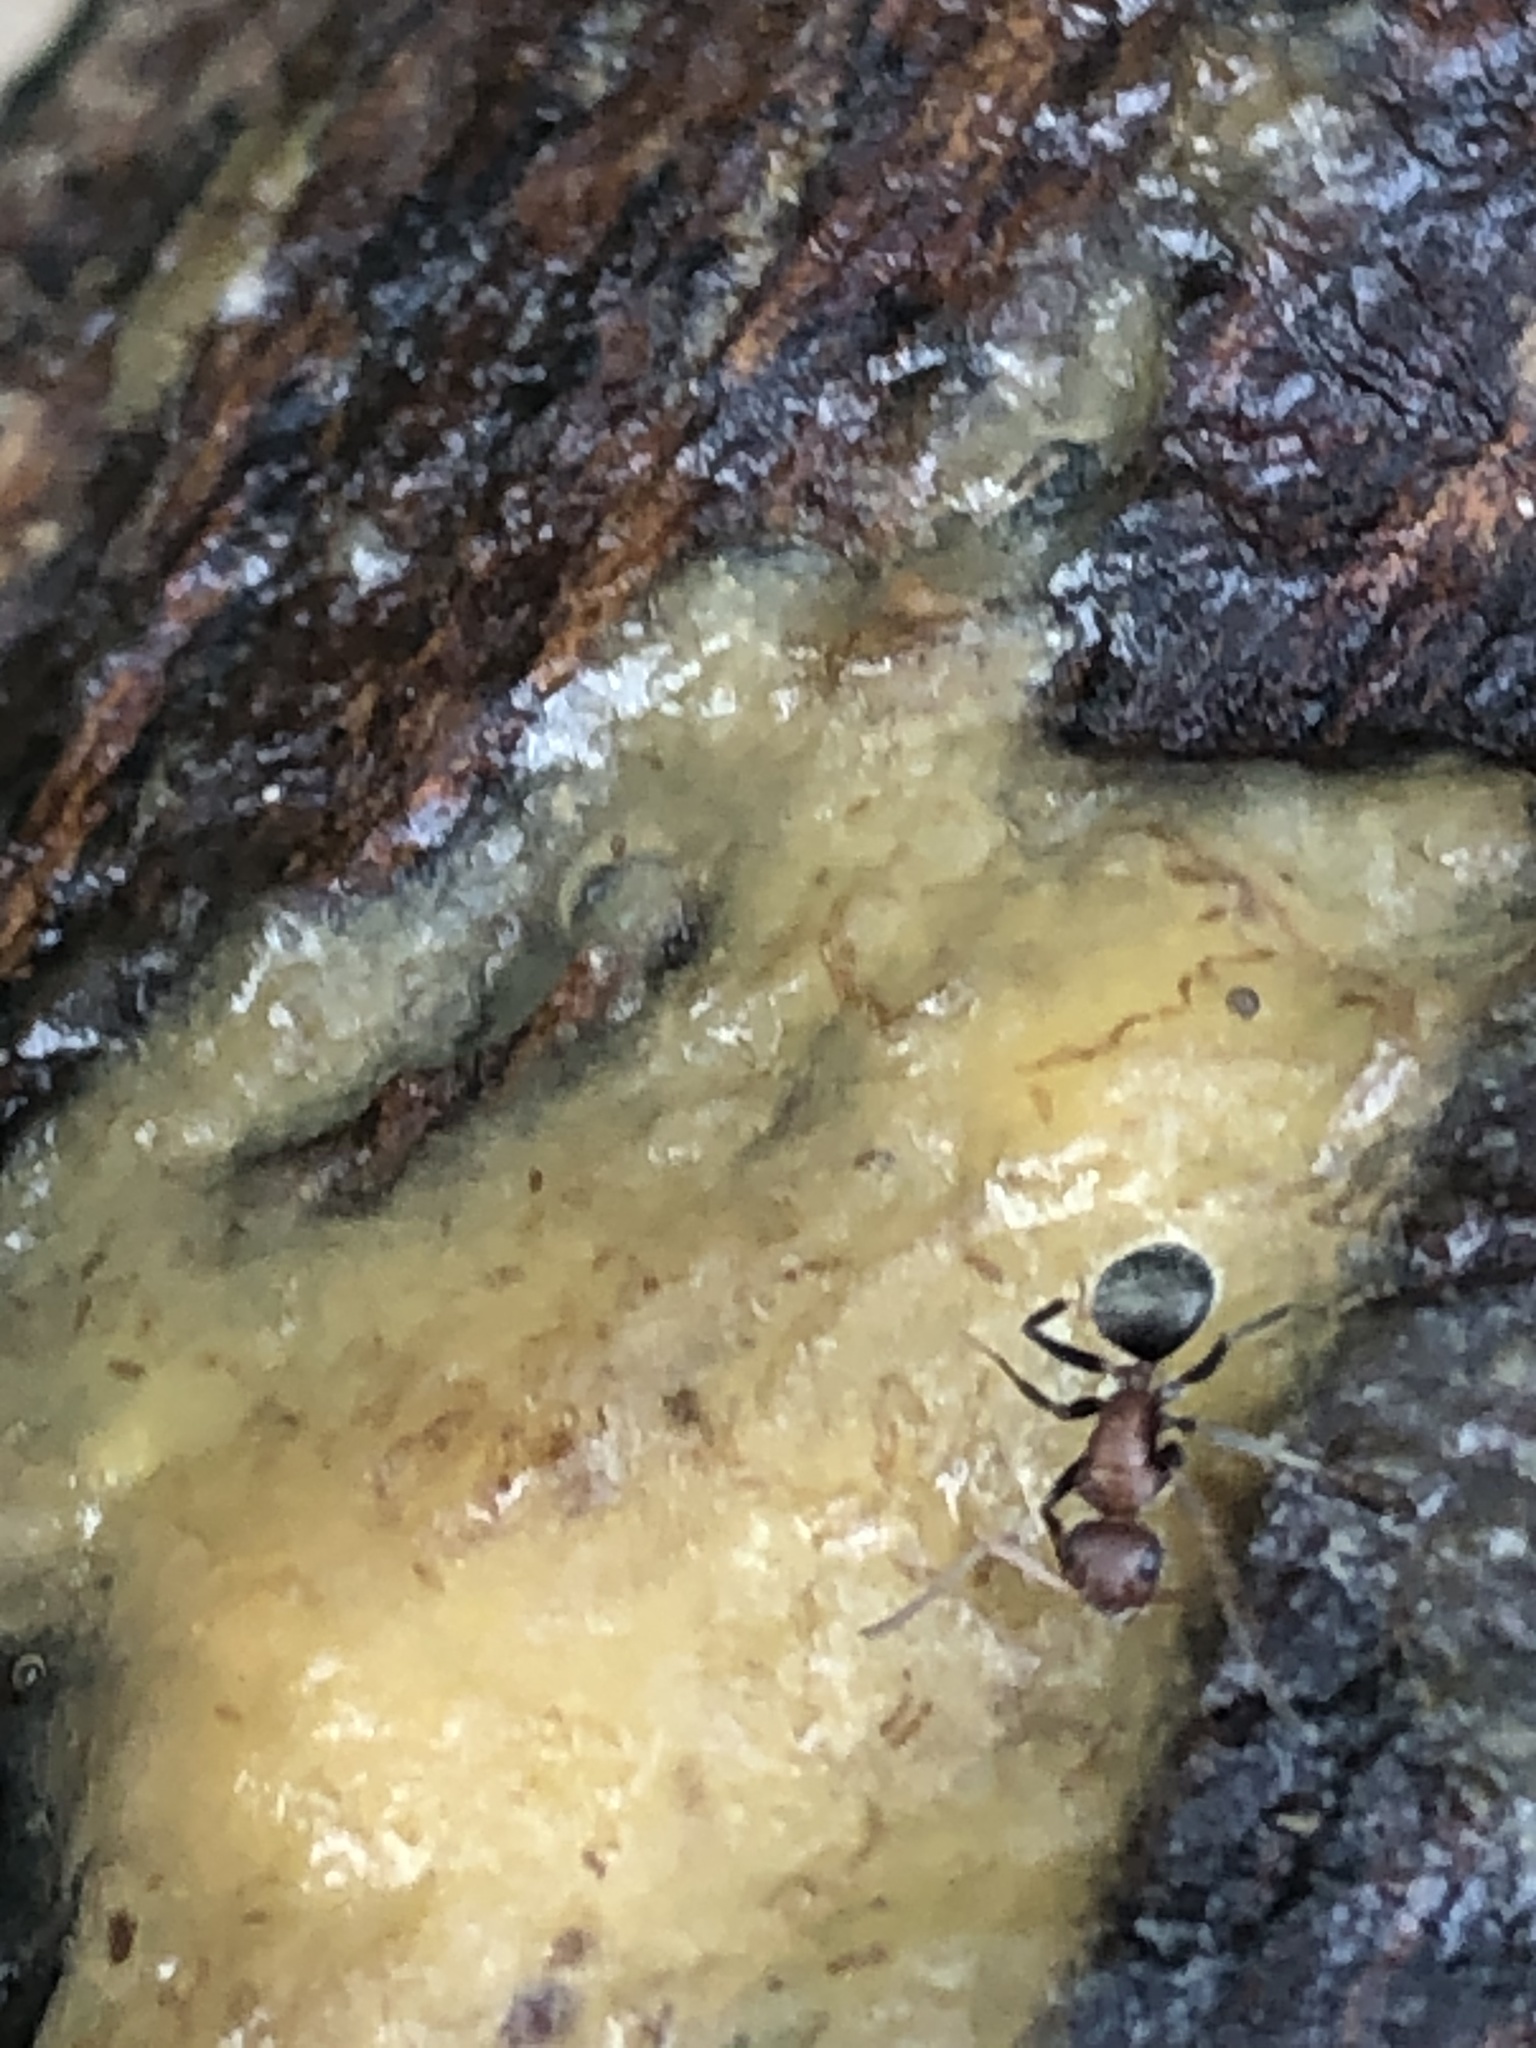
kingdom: Animalia
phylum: Arthropoda
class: Insecta
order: Hymenoptera
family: Formicidae
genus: Camponotus
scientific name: Camponotus planatus
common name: Compact carpenter ant
